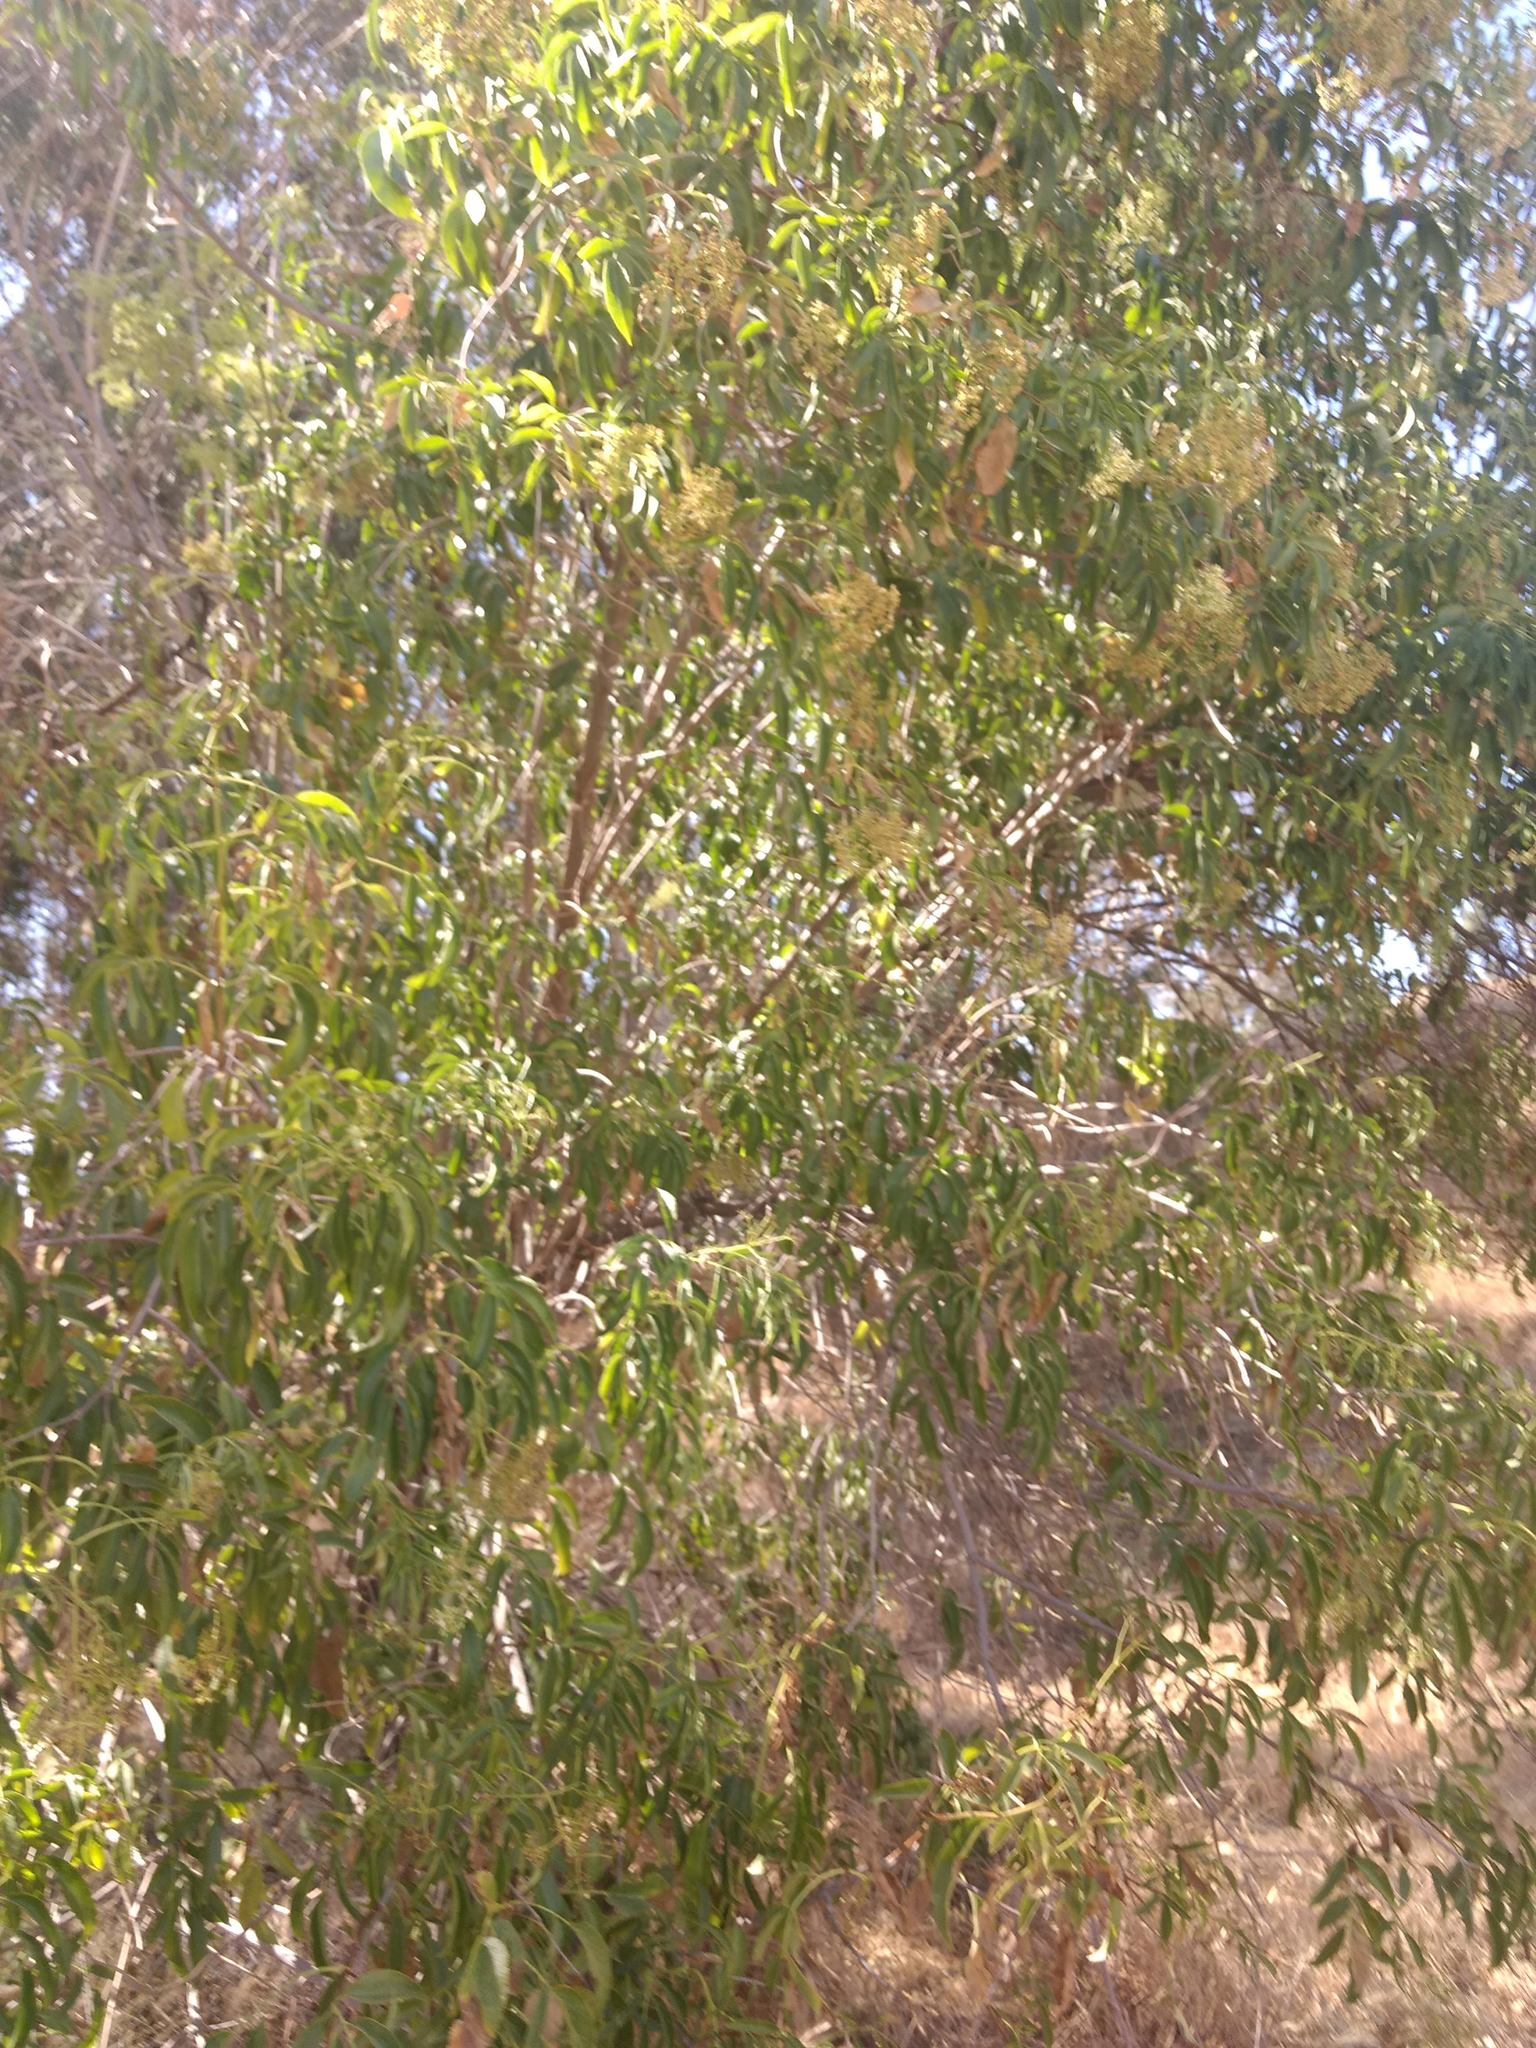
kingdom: Plantae
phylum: Tracheophyta
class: Magnoliopsida
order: Dipsacales
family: Viburnaceae
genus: Sambucus
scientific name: Sambucus cerulea
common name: Blue elder
